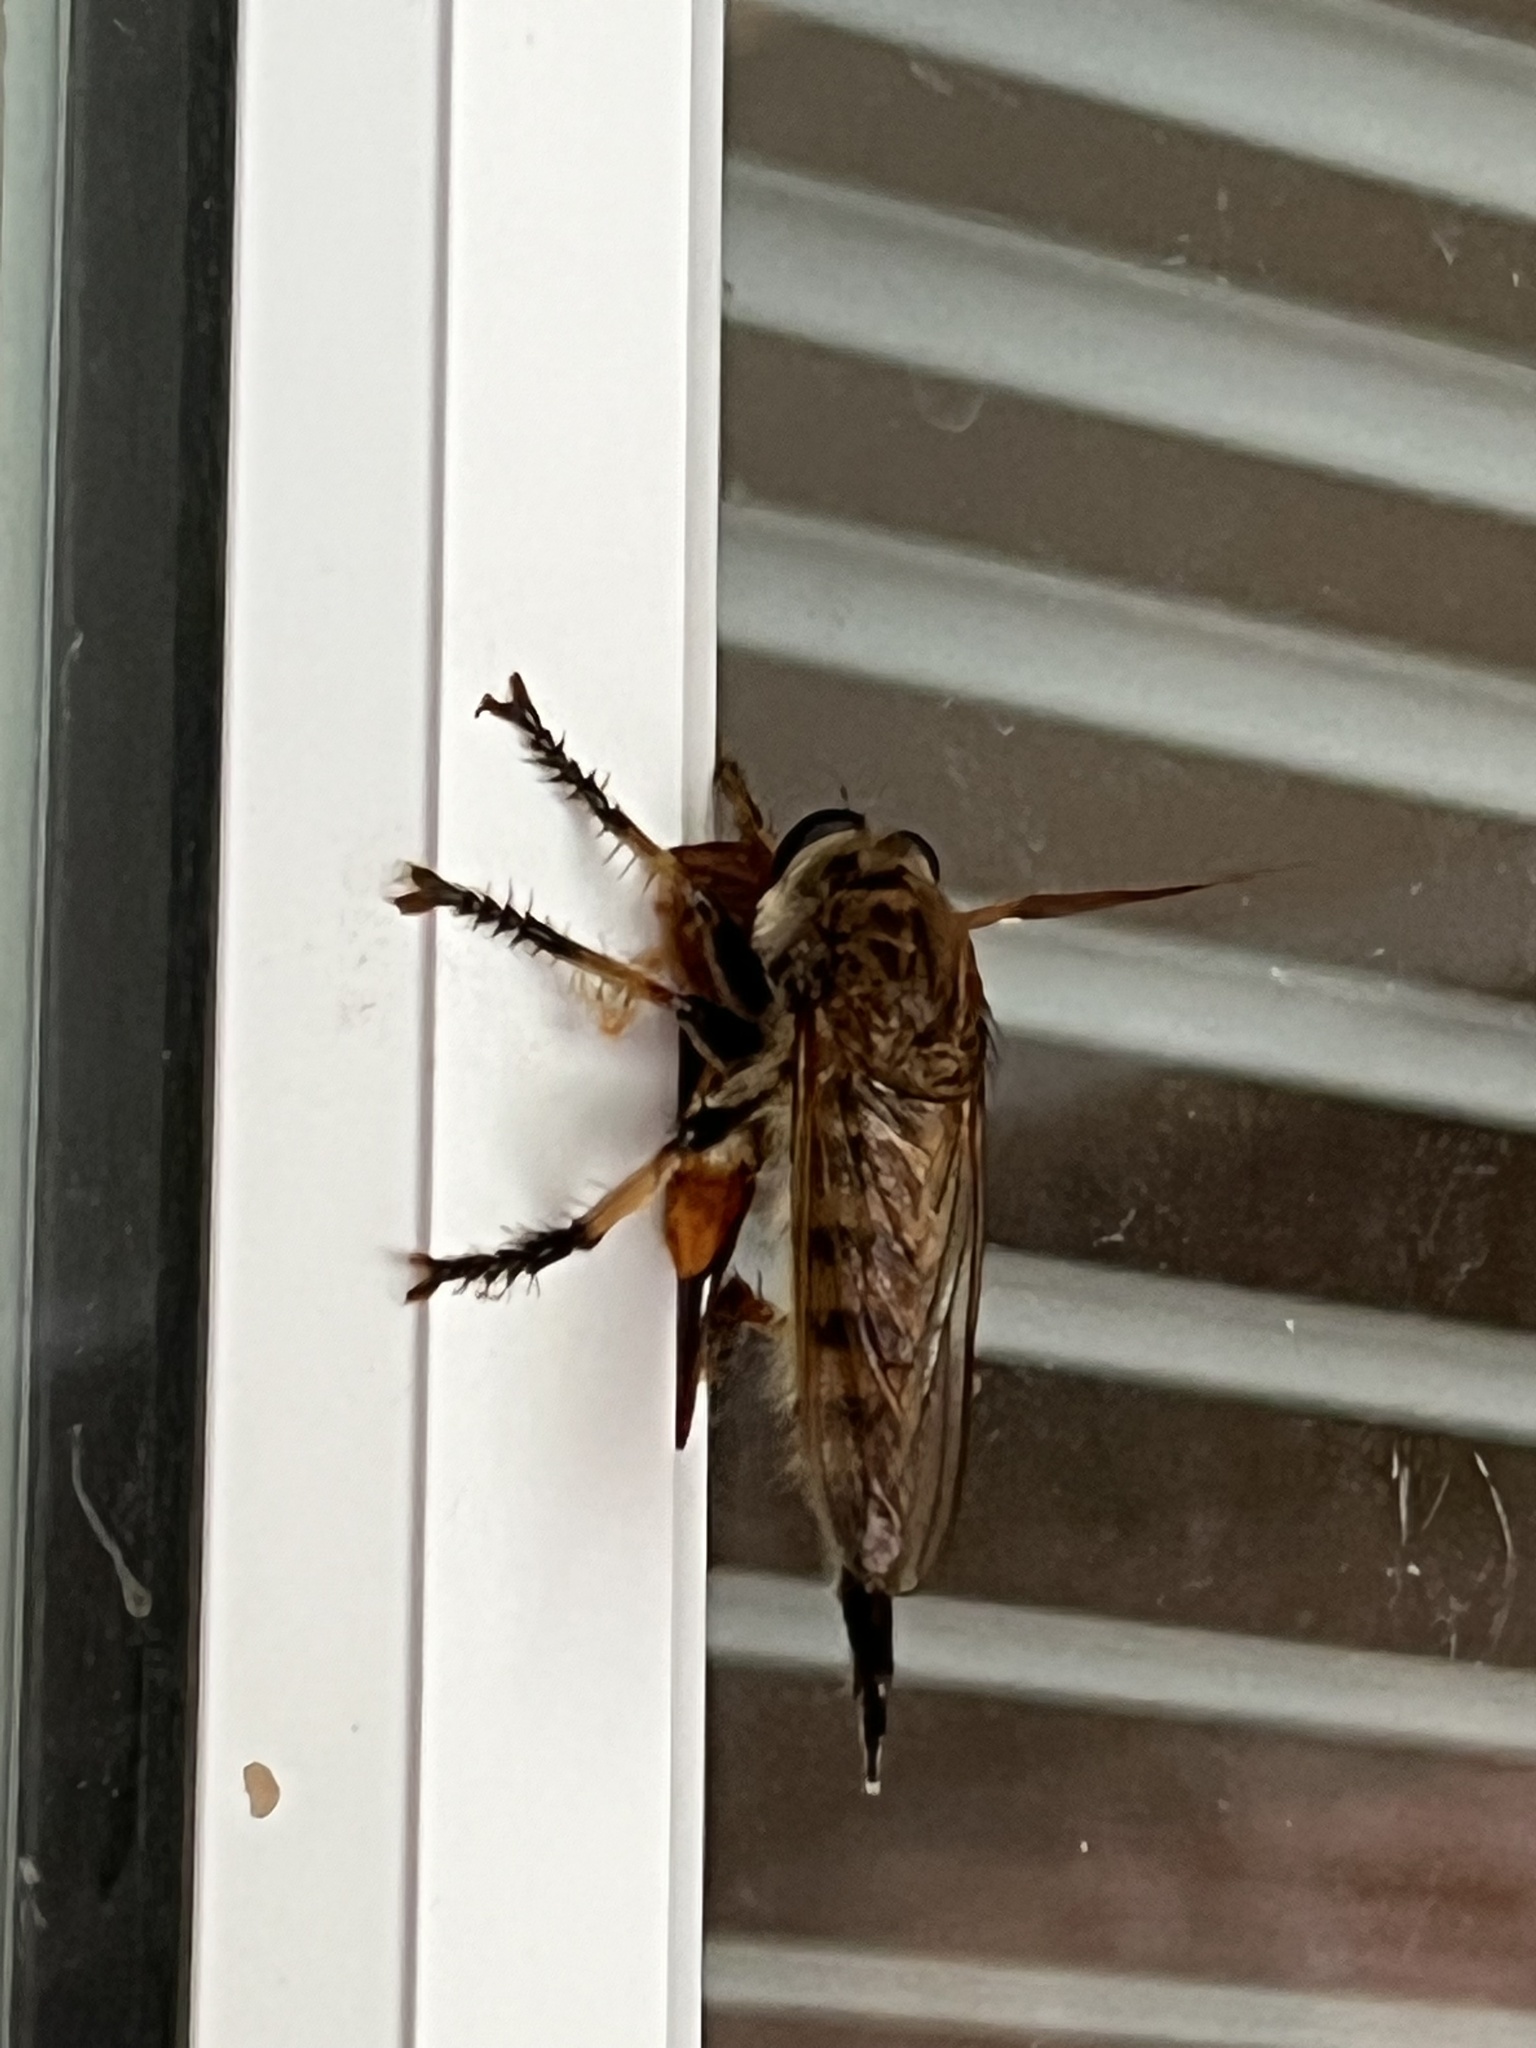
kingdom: Animalia
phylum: Arthropoda
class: Insecta
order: Diptera
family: Asilidae
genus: Promachus
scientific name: Promachus rufipes
